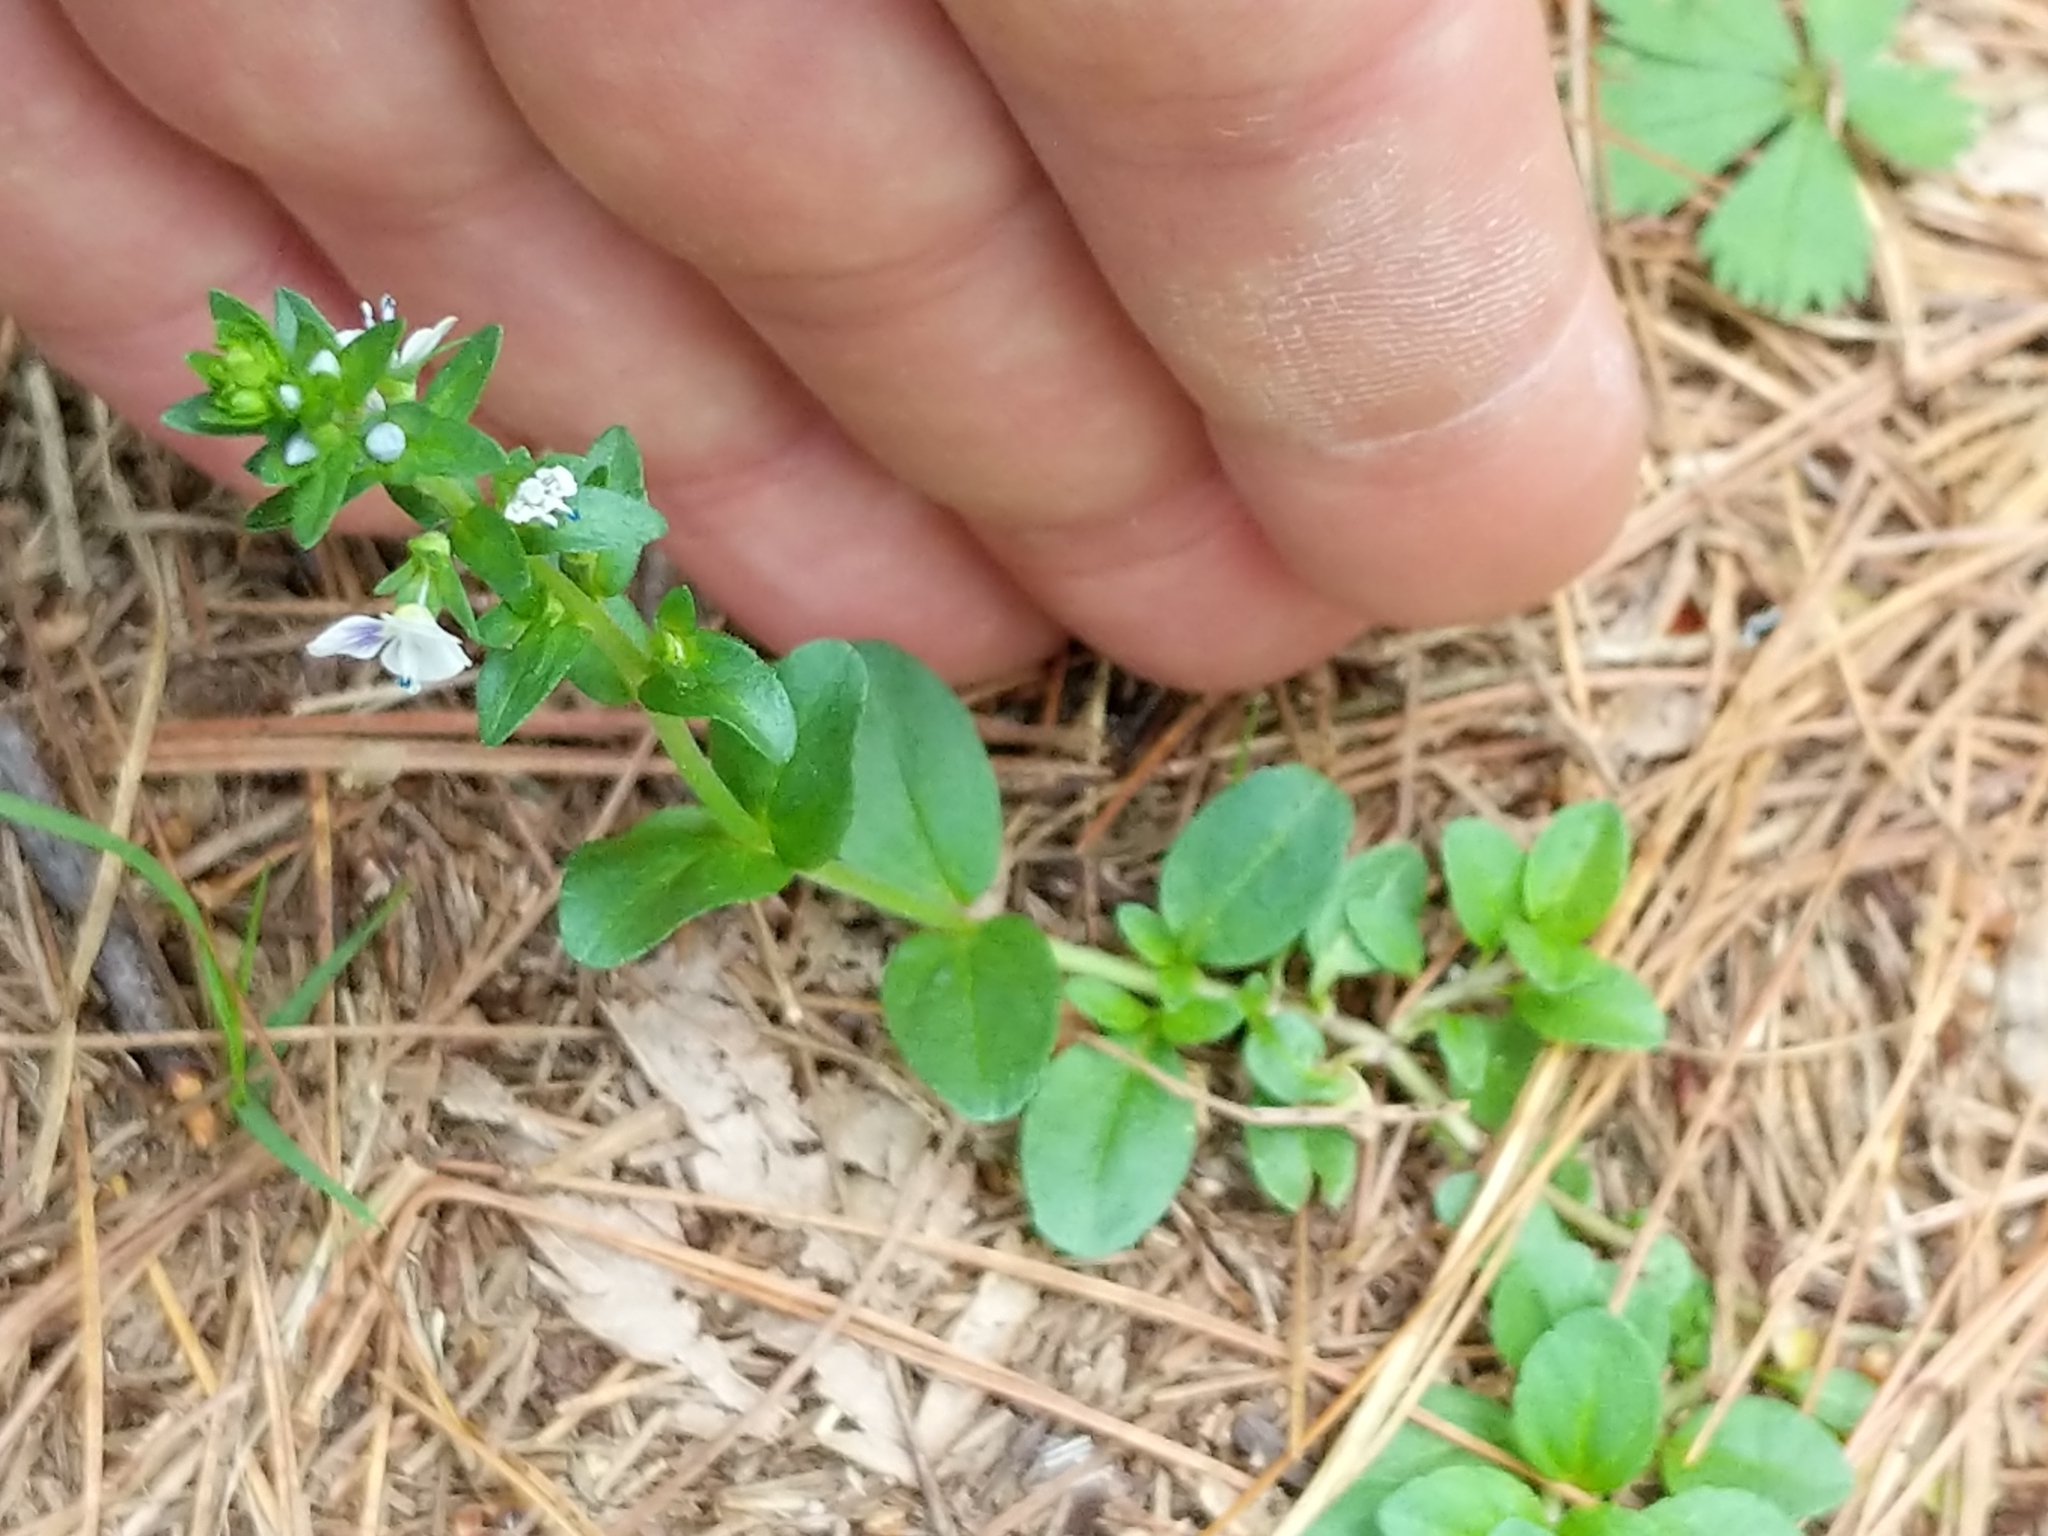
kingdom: Plantae
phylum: Tracheophyta
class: Magnoliopsida
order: Lamiales
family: Plantaginaceae
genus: Veronica
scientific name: Veronica serpyllifolia
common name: Thyme-leaved speedwell
